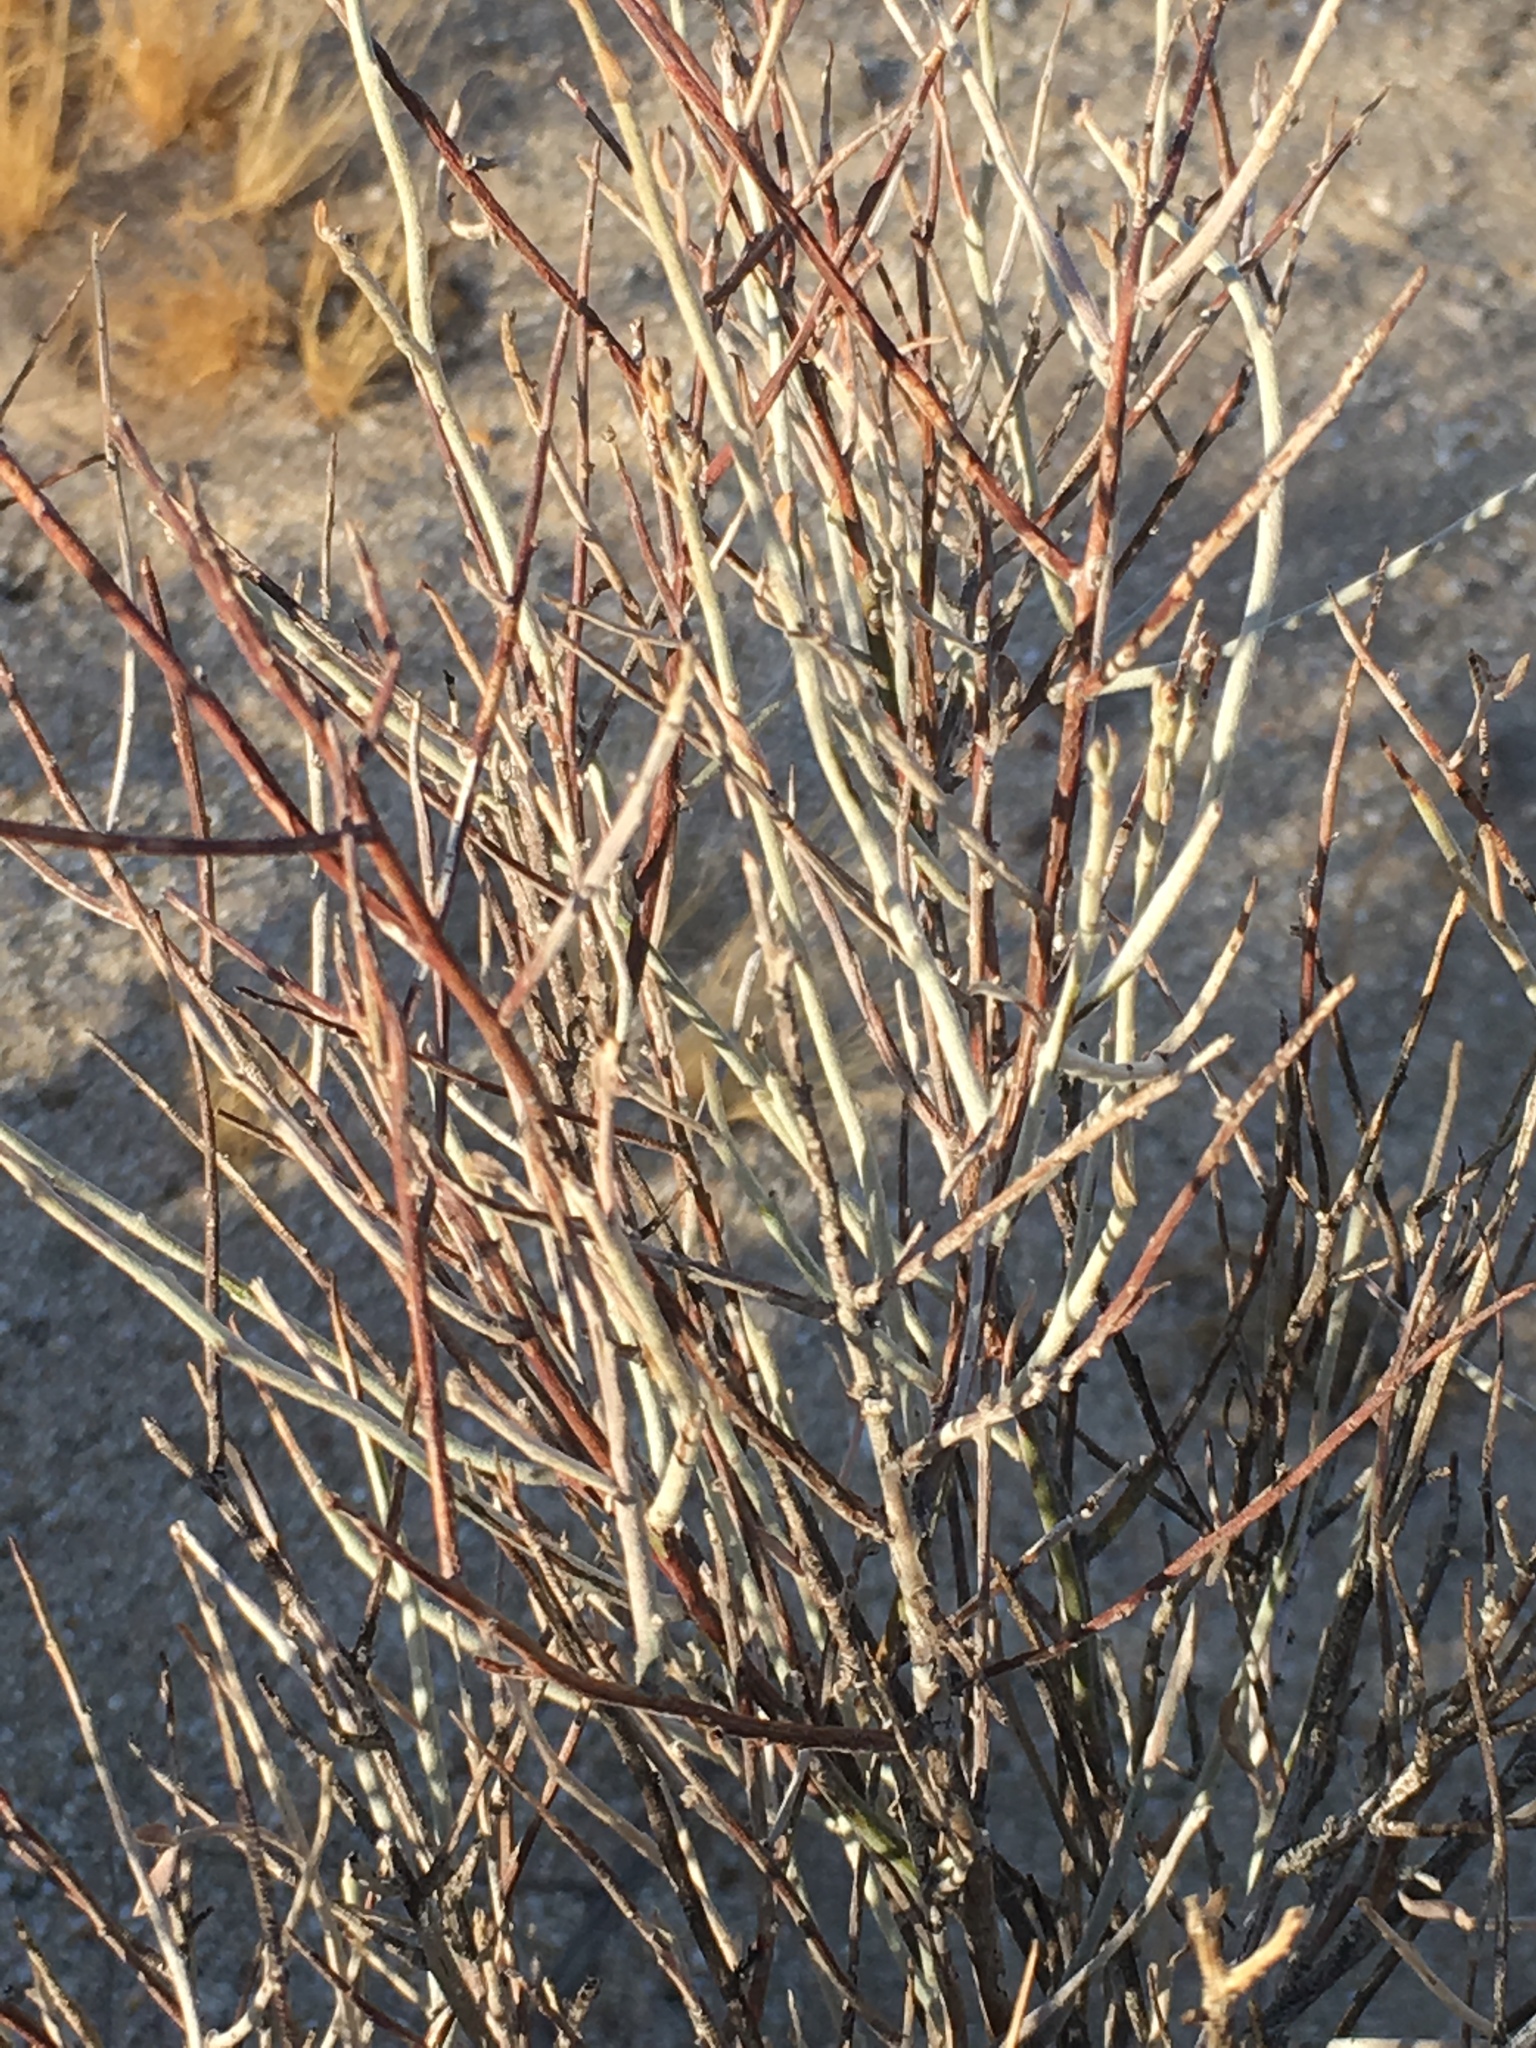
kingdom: Plantae
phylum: Tracheophyta
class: Magnoliopsida
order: Zygophyllales
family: Krameriaceae
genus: Krameria
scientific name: Krameria bicolor
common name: White ratany
